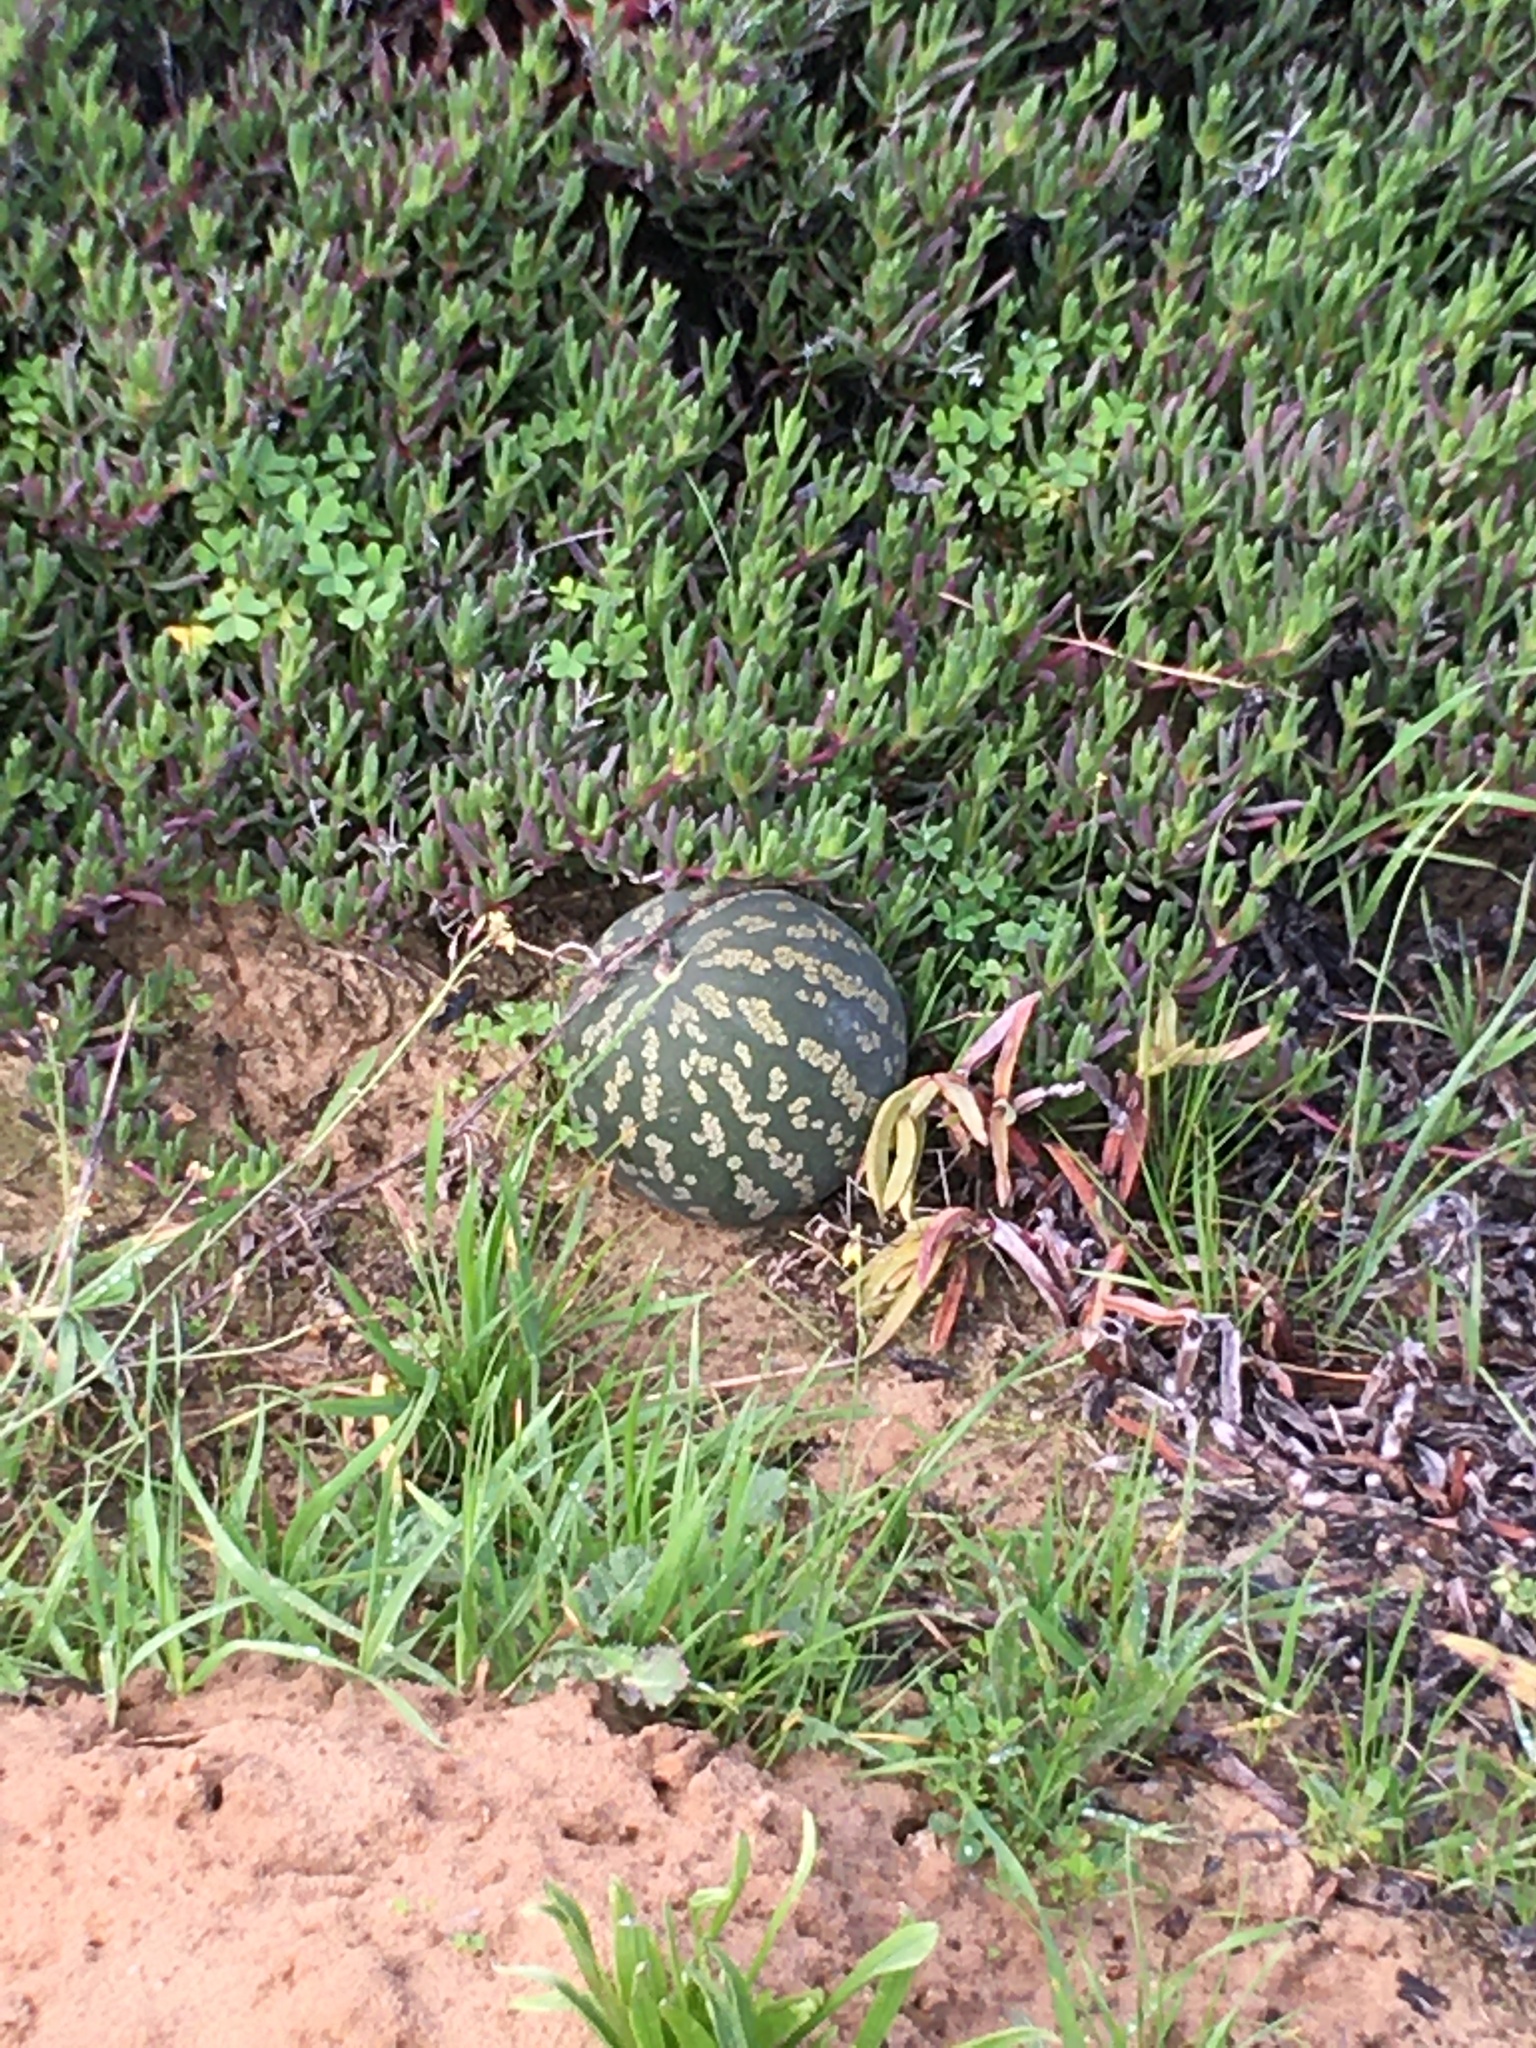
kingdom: Plantae
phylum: Tracheophyta
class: Magnoliopsida
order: Cucurbitales
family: Cucurbitaceae
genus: Citrullus
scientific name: Citrullus amarus
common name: Fodder-melon
